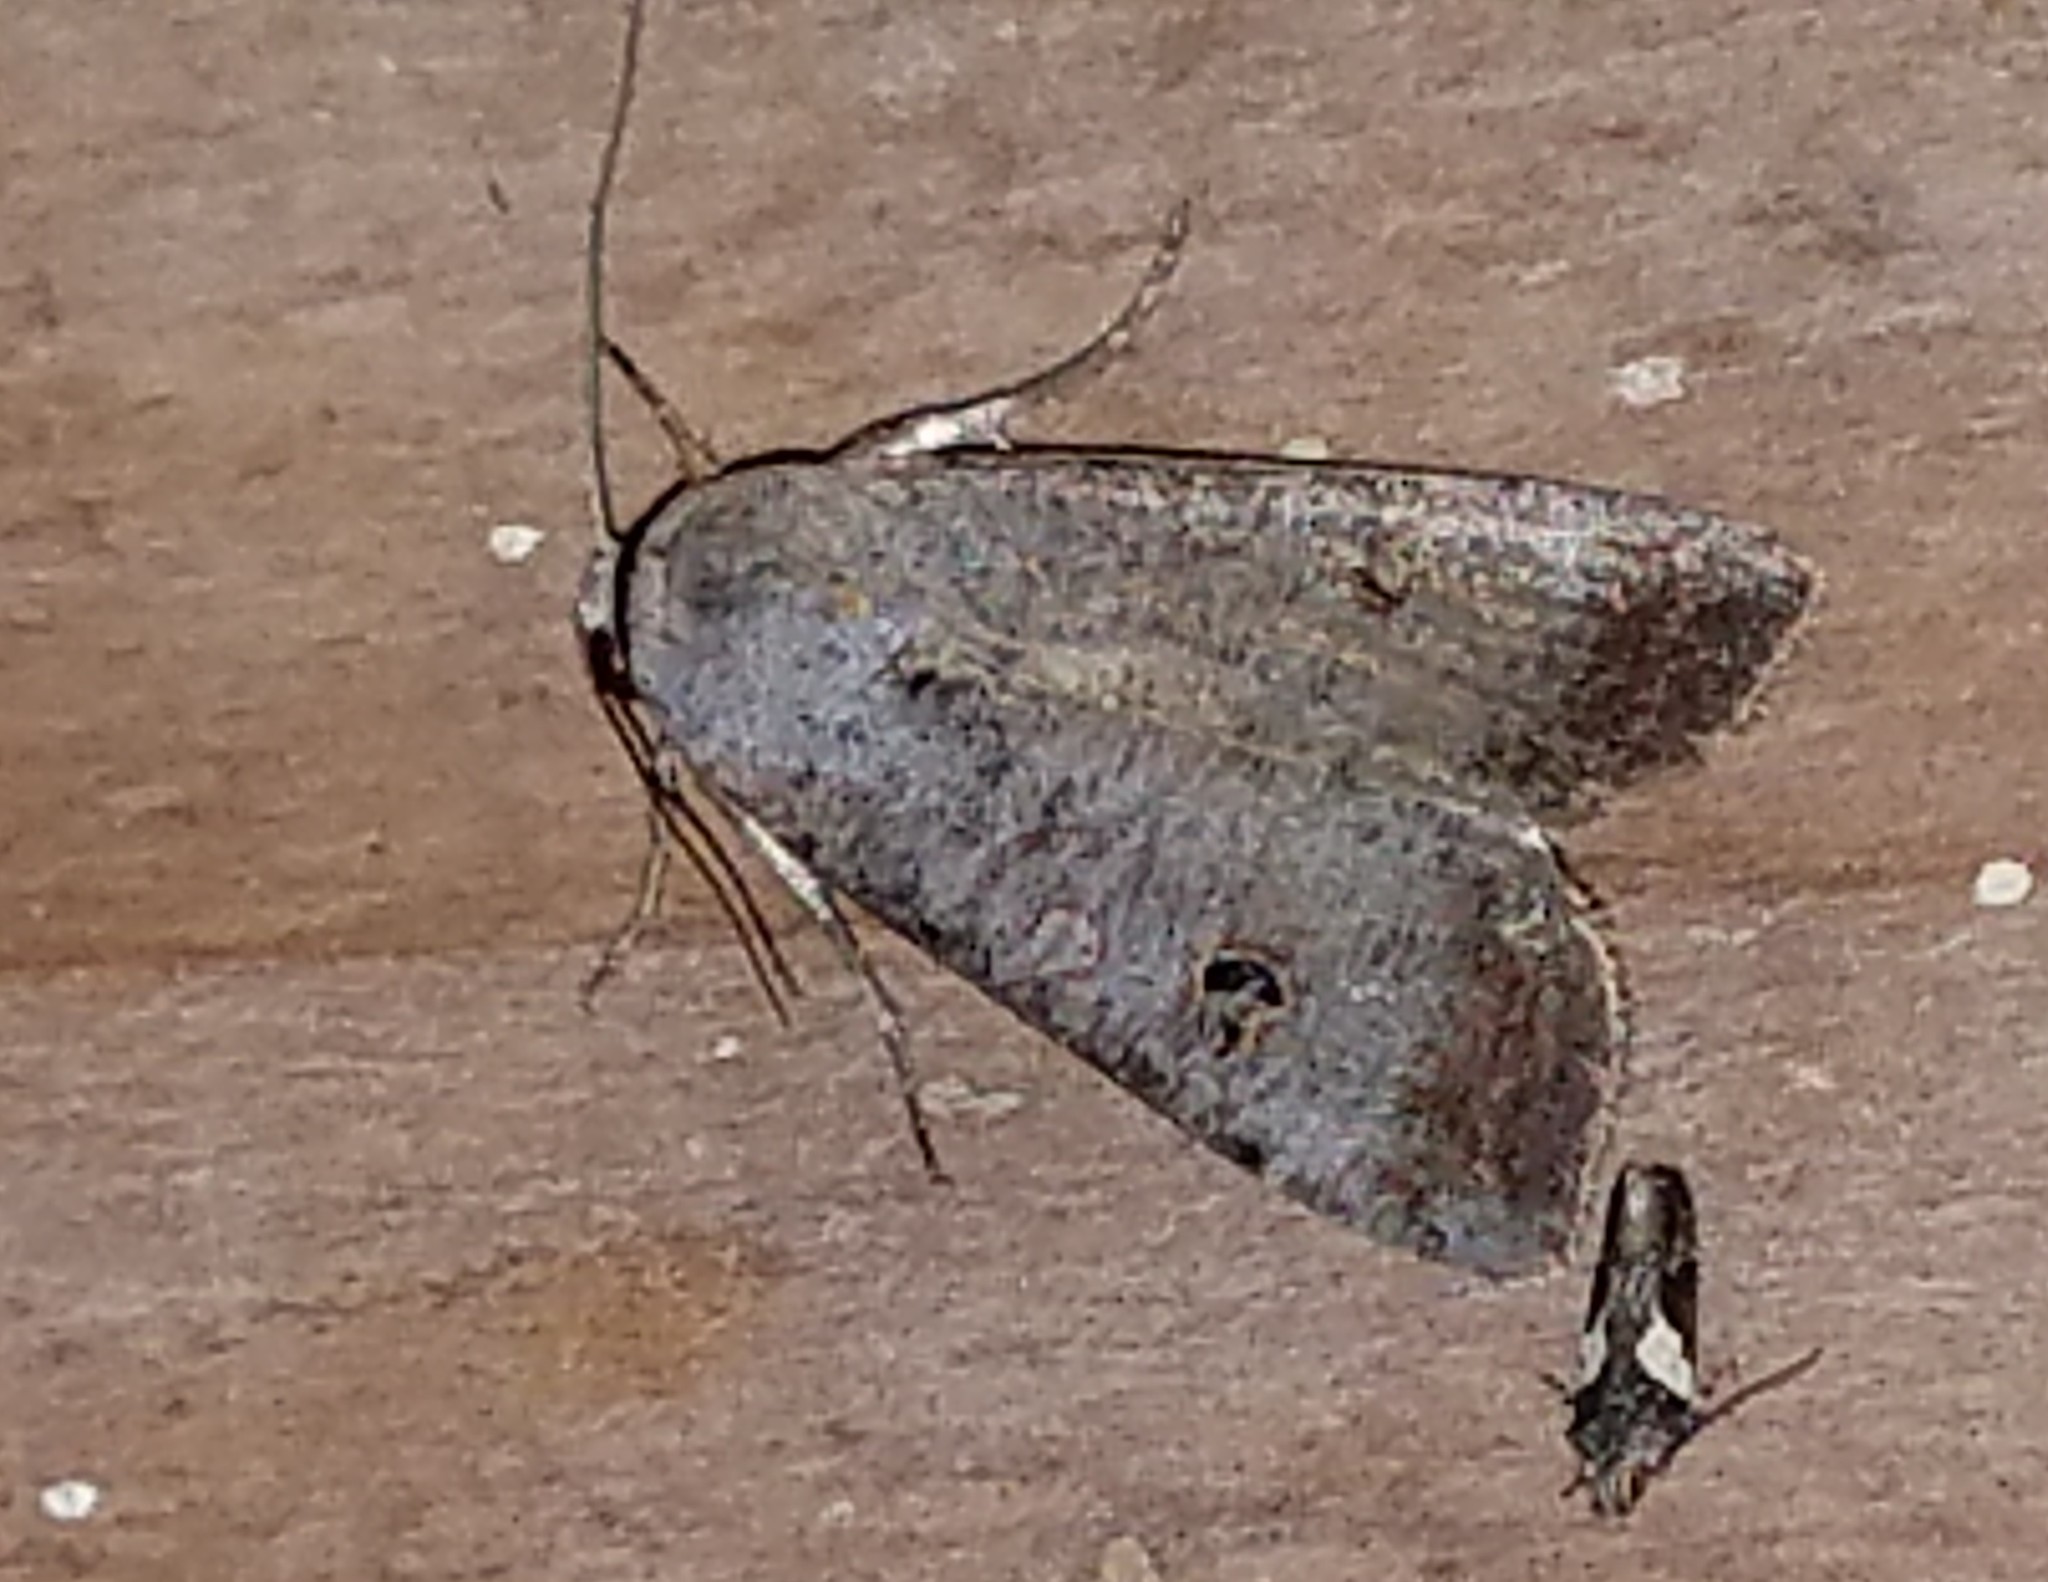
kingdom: Animalia
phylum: Arthropoda
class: Insecta
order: Lepidoptera
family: Noctuidae
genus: Anicla
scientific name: Anicla infecta
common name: Green cutworm
